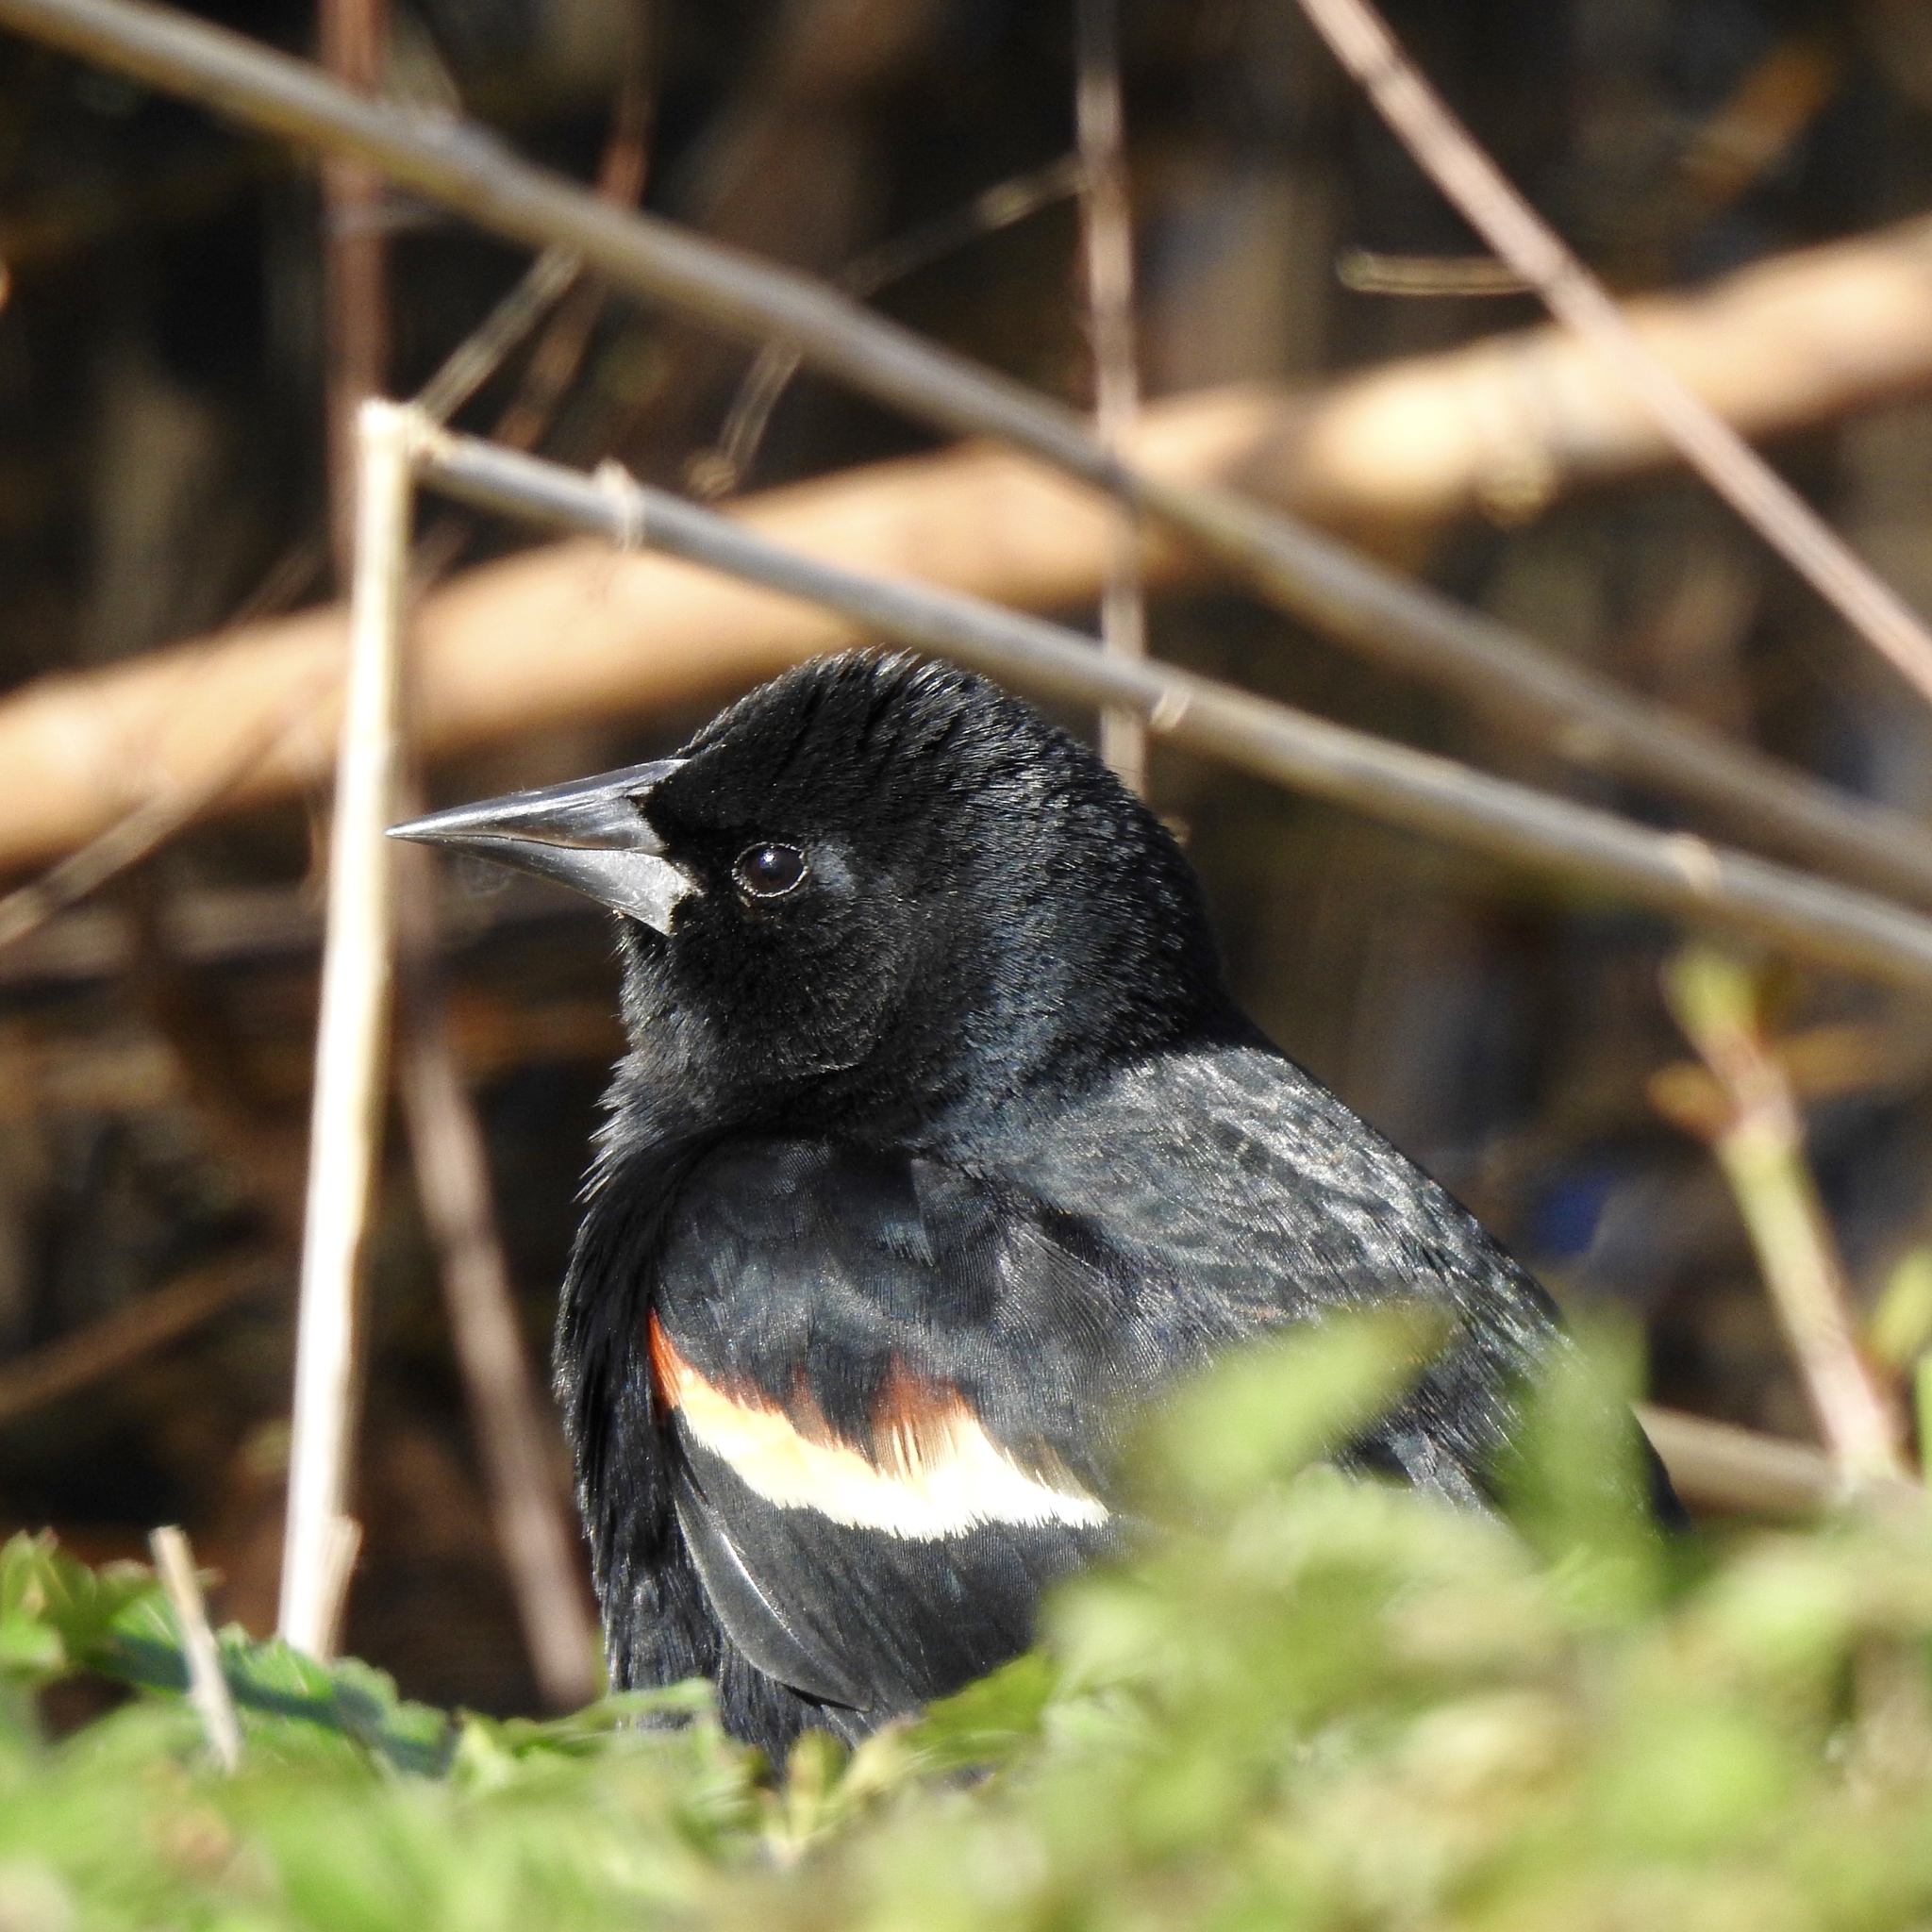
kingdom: Animalia
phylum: Chordata
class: Aves
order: Passeriformes
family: Icteridae
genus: Agelaius
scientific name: Agelaius phoeniceus
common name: Red-winged blackbird
